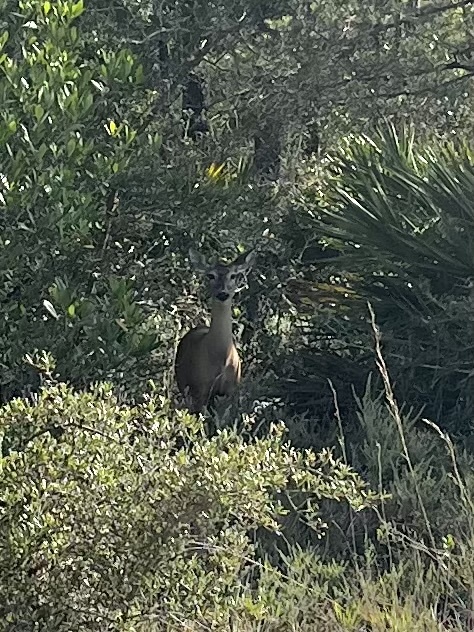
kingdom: Animalia
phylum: Chordata
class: Mammalia
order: Artiodactyla
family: Cervidae
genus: Odocoileus
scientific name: Odocoileus virginianus
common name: White-tailed deer
